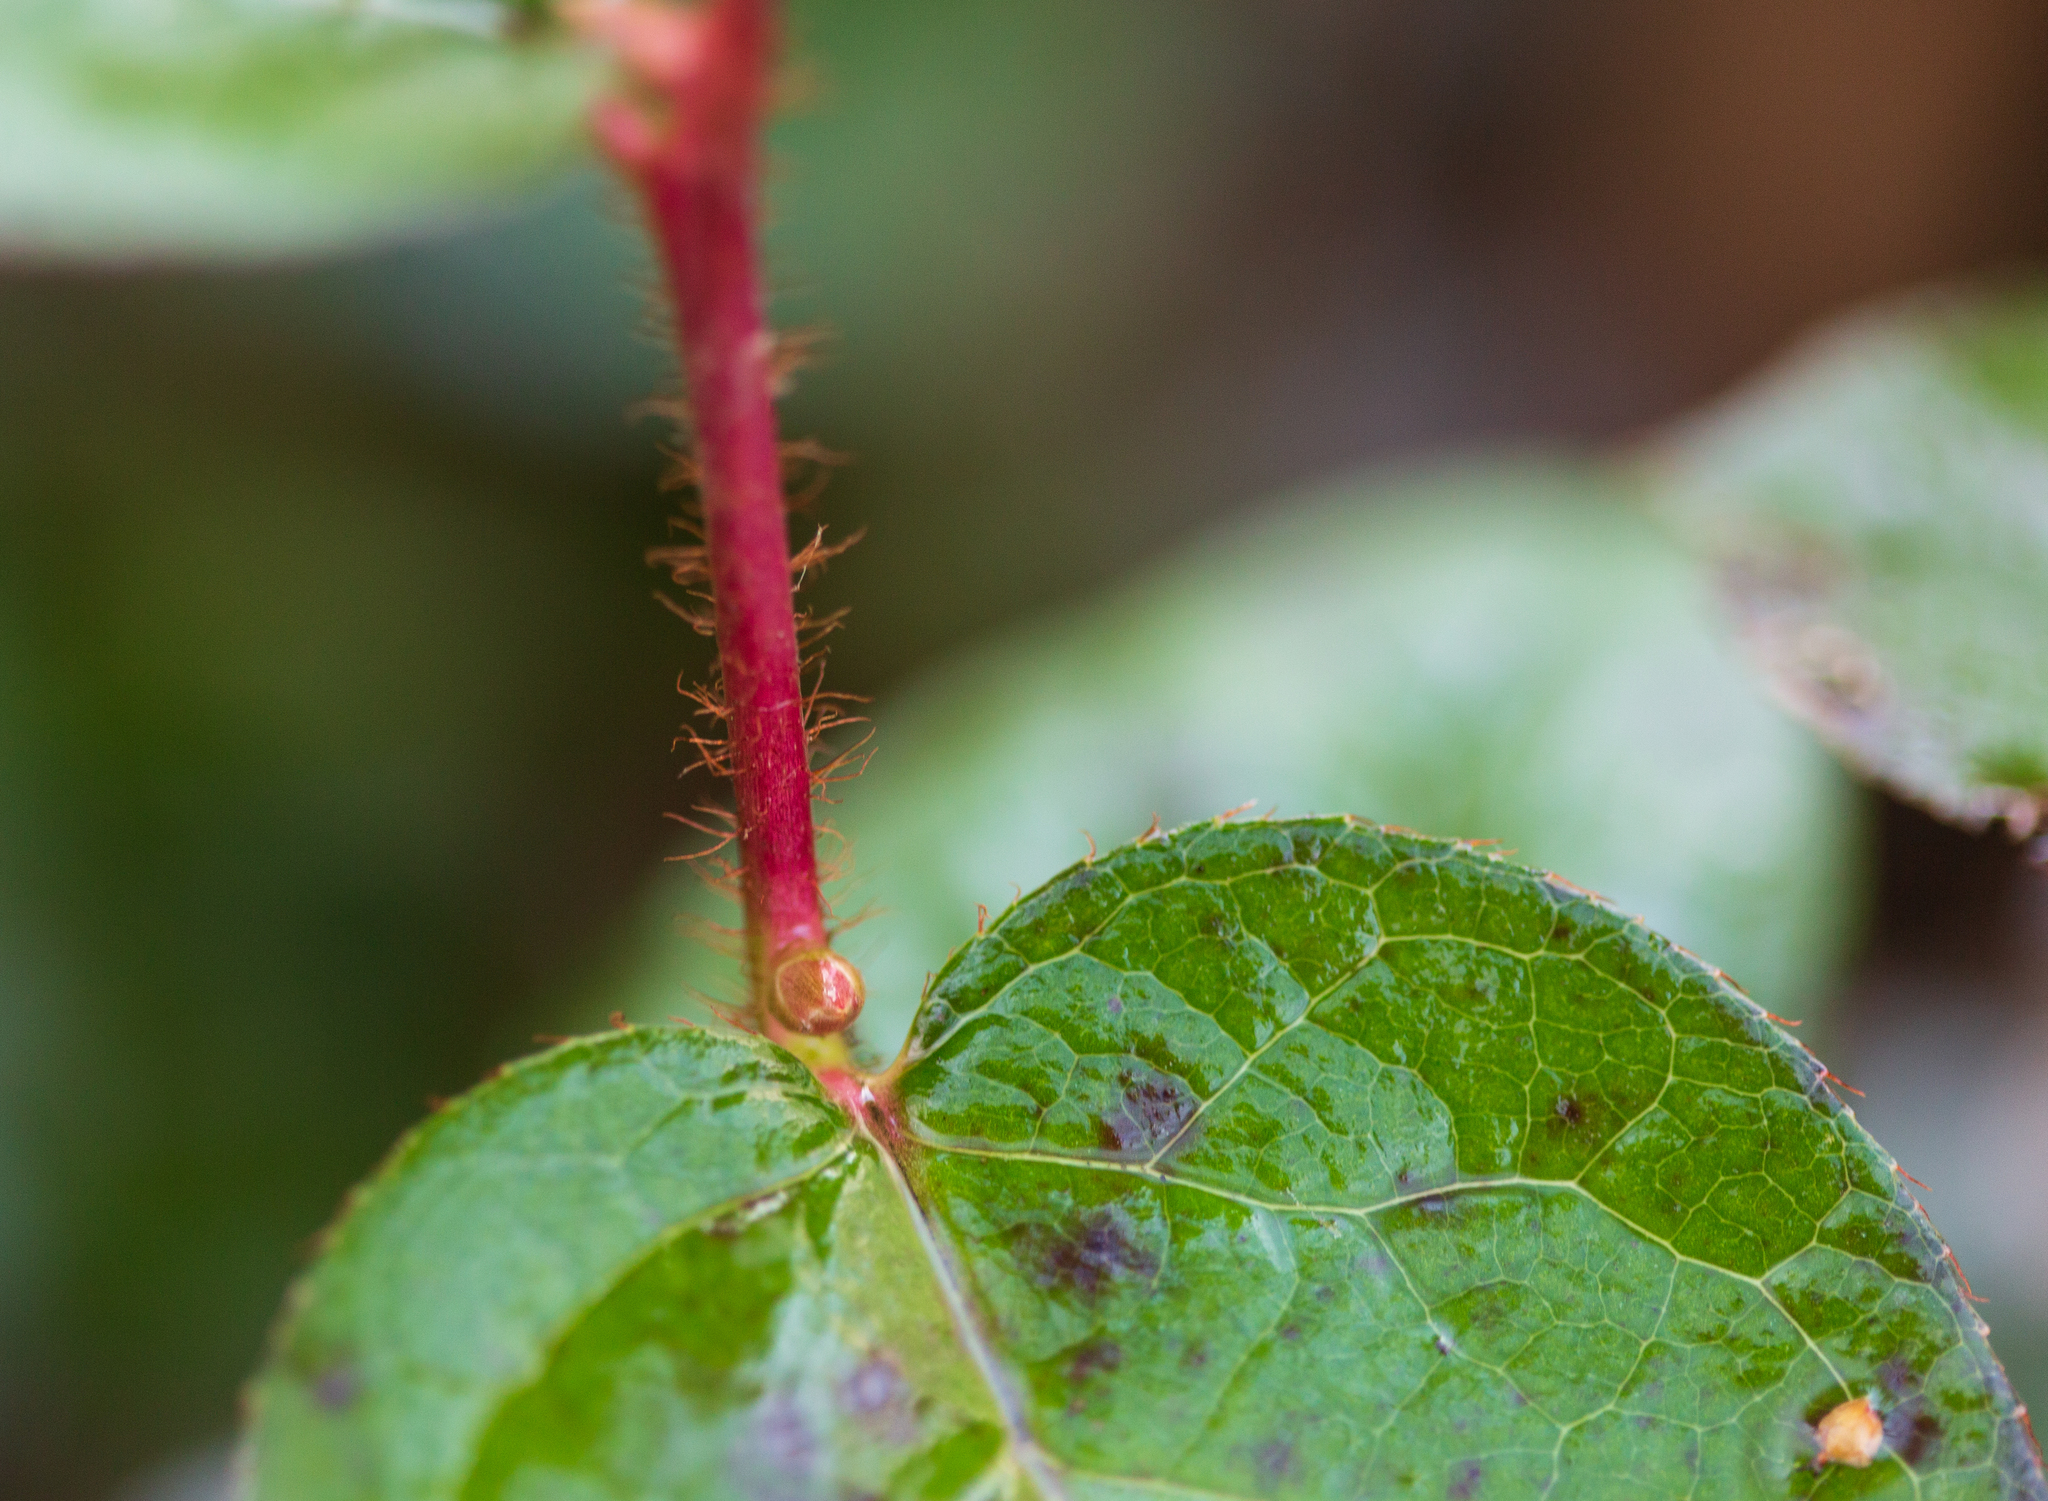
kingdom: Plantae
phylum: Tracheophyta
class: Magnoliopsida
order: Ericales
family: Ericaceae
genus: Gaultheria
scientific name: Gaultheria shallon
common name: Shallon
